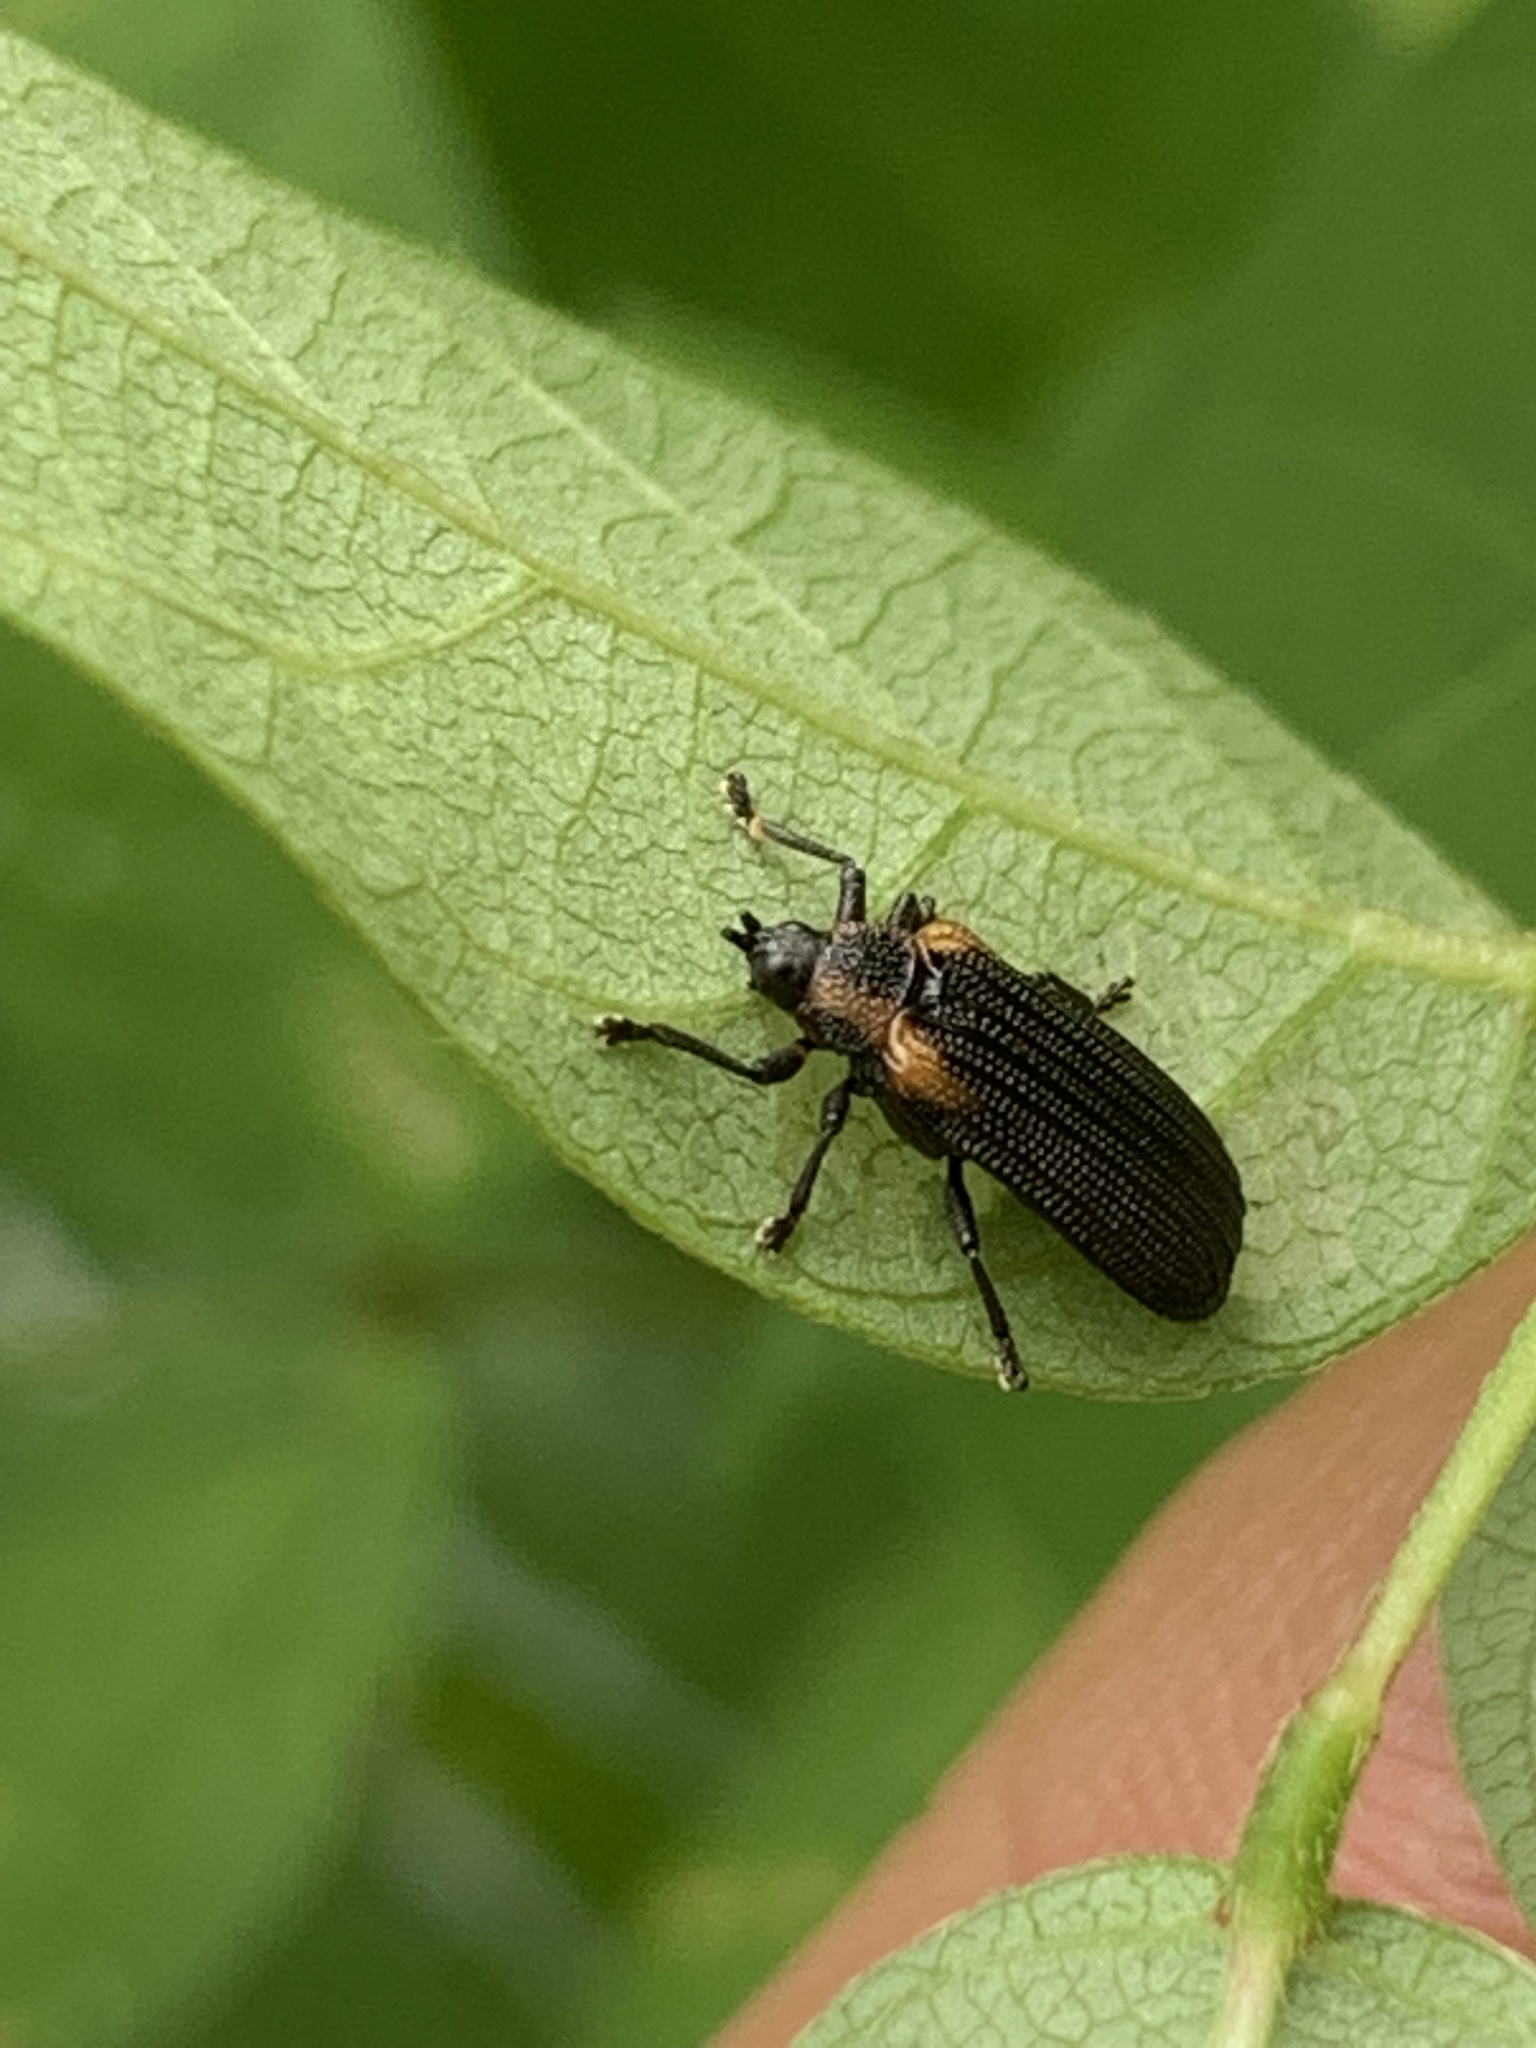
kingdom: Animalia
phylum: Arthropoda
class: Insecta
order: Coleoptera
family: Chrysomelidae
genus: Odontota
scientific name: Odontota scapularis
